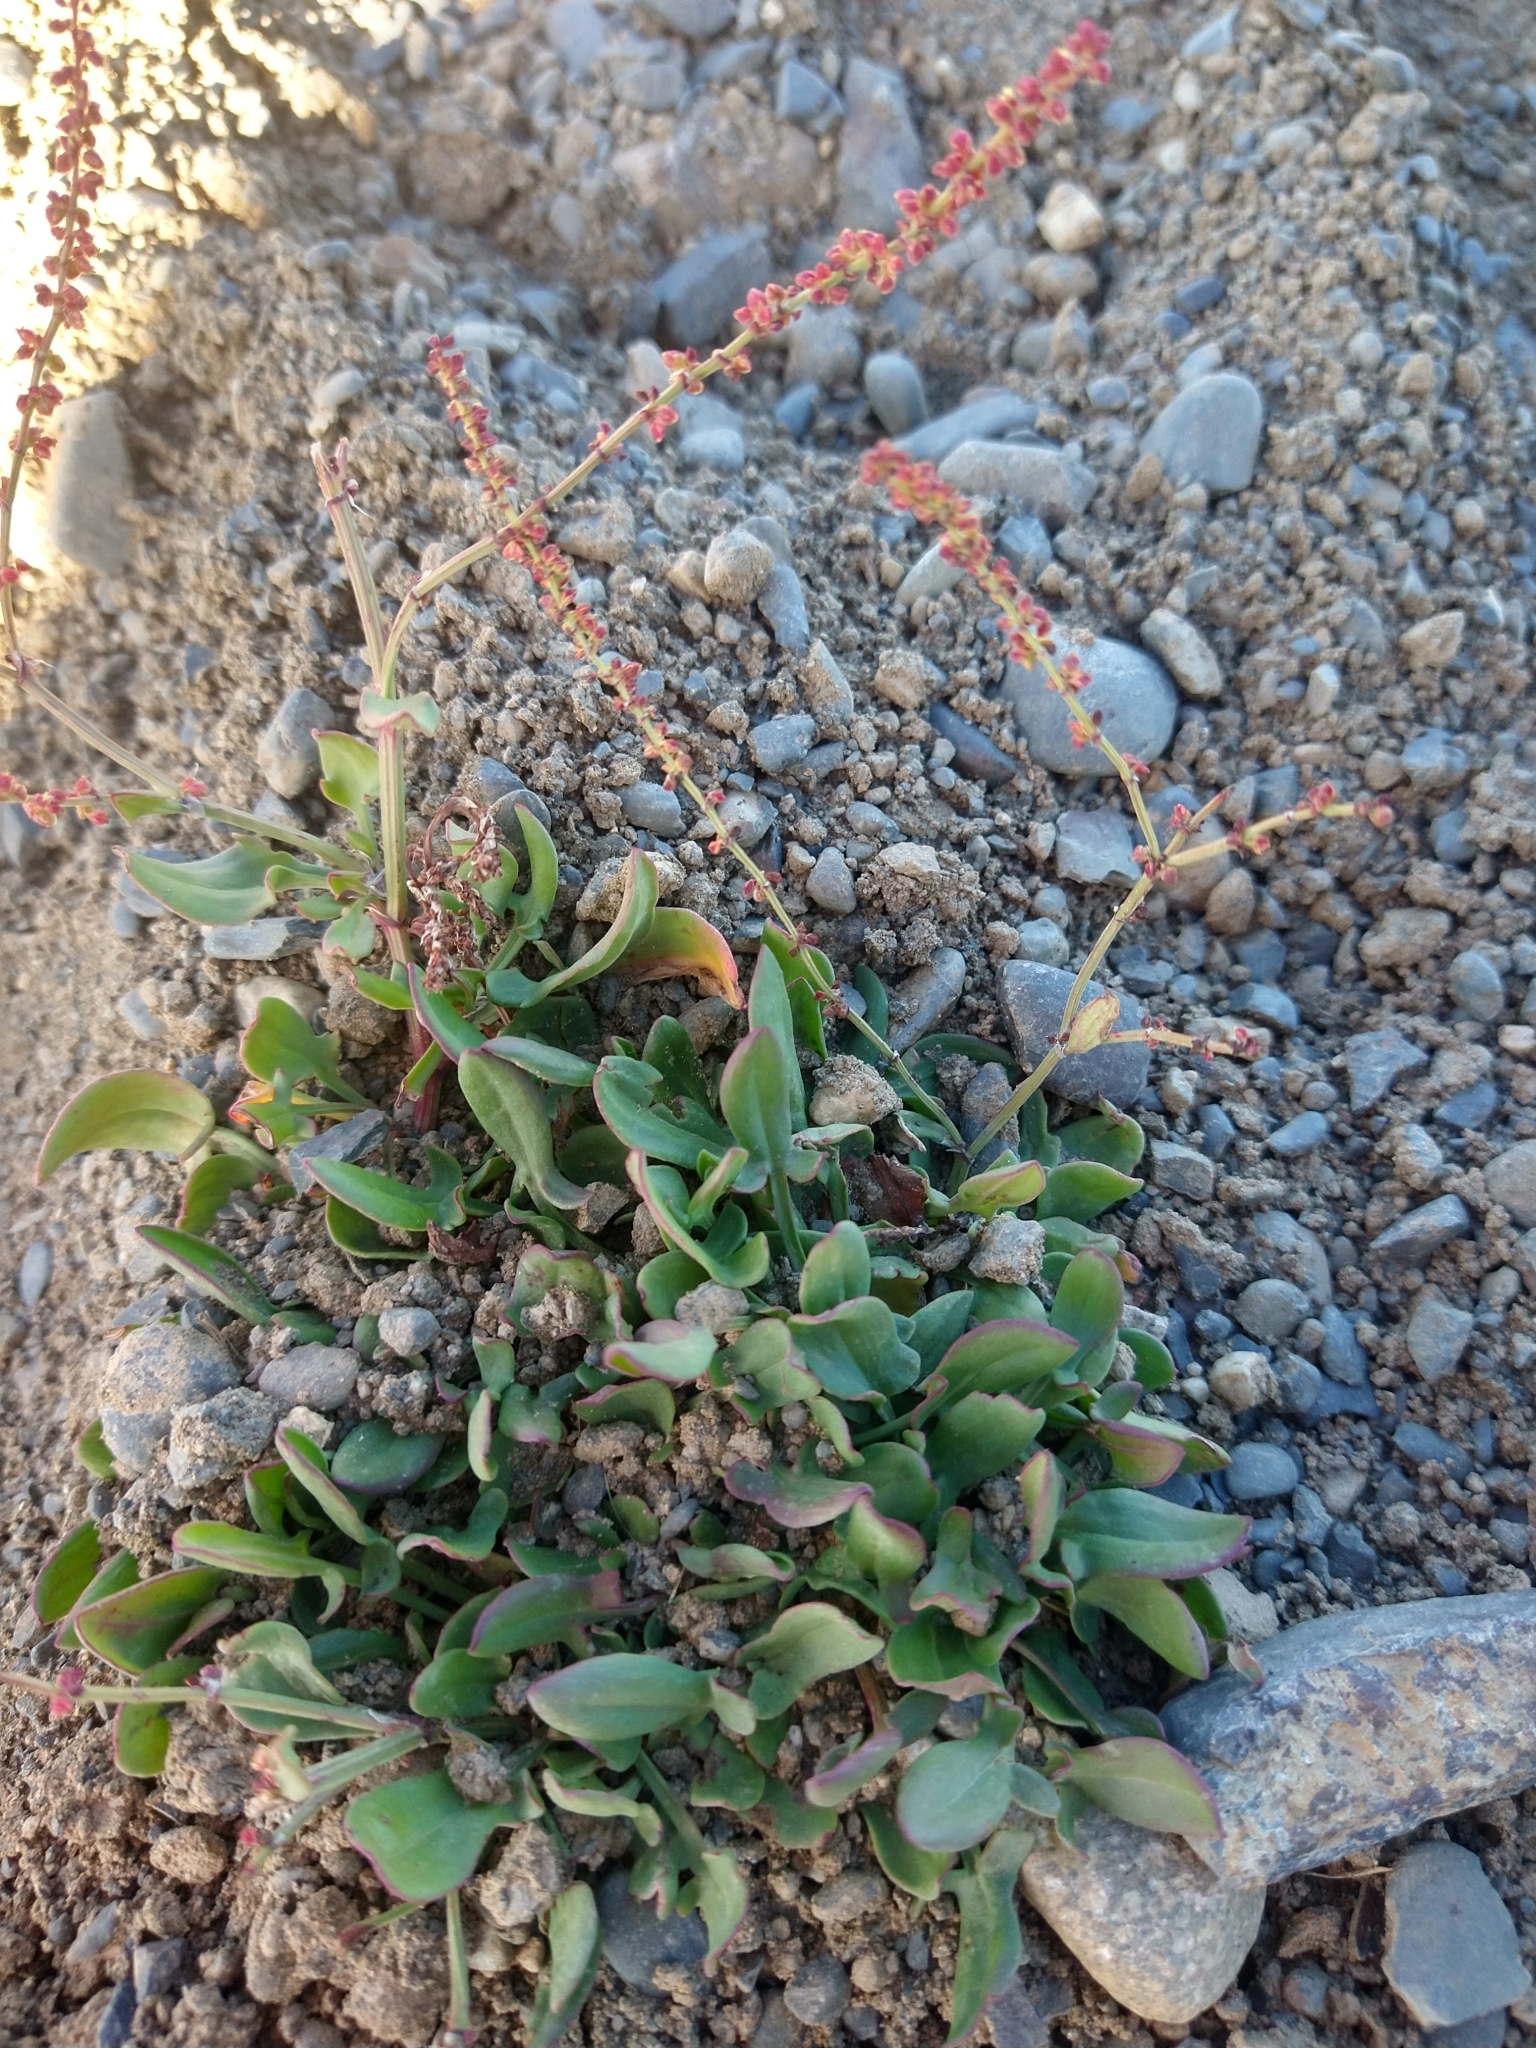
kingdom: Plantae
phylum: Tracheophyta
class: Magnoliopsida
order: Caryophyllales
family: Polygonaceae
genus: Rumex
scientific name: Rumex acetosella
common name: Common sheep sorrel
